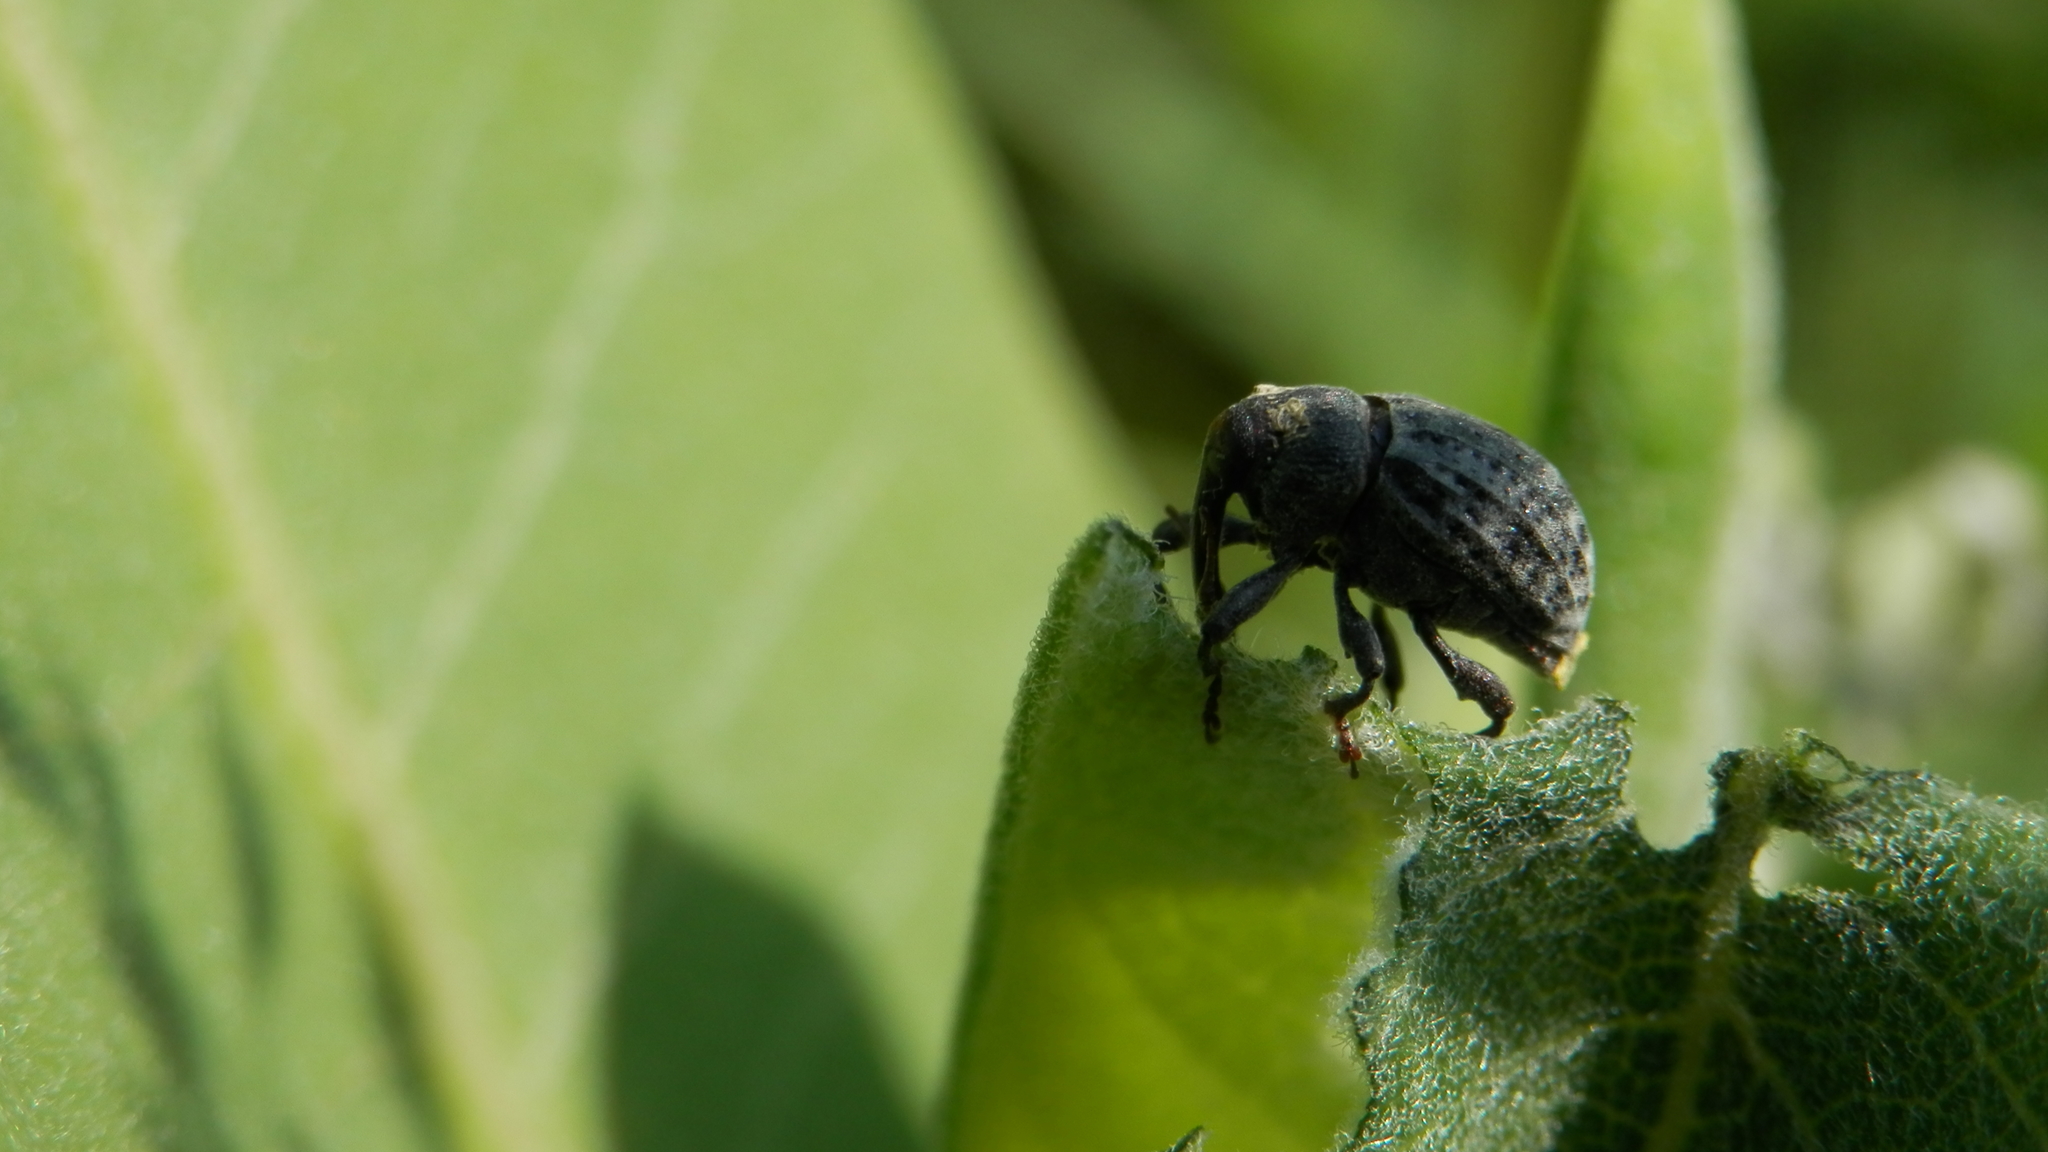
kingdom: Animalia
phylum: Arthropoda
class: Insecta
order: Coleoptera
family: Curculionidae
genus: Rhyssomatus
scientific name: Rhyssomatus lineaticollis
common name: Milkweed stem weevil
